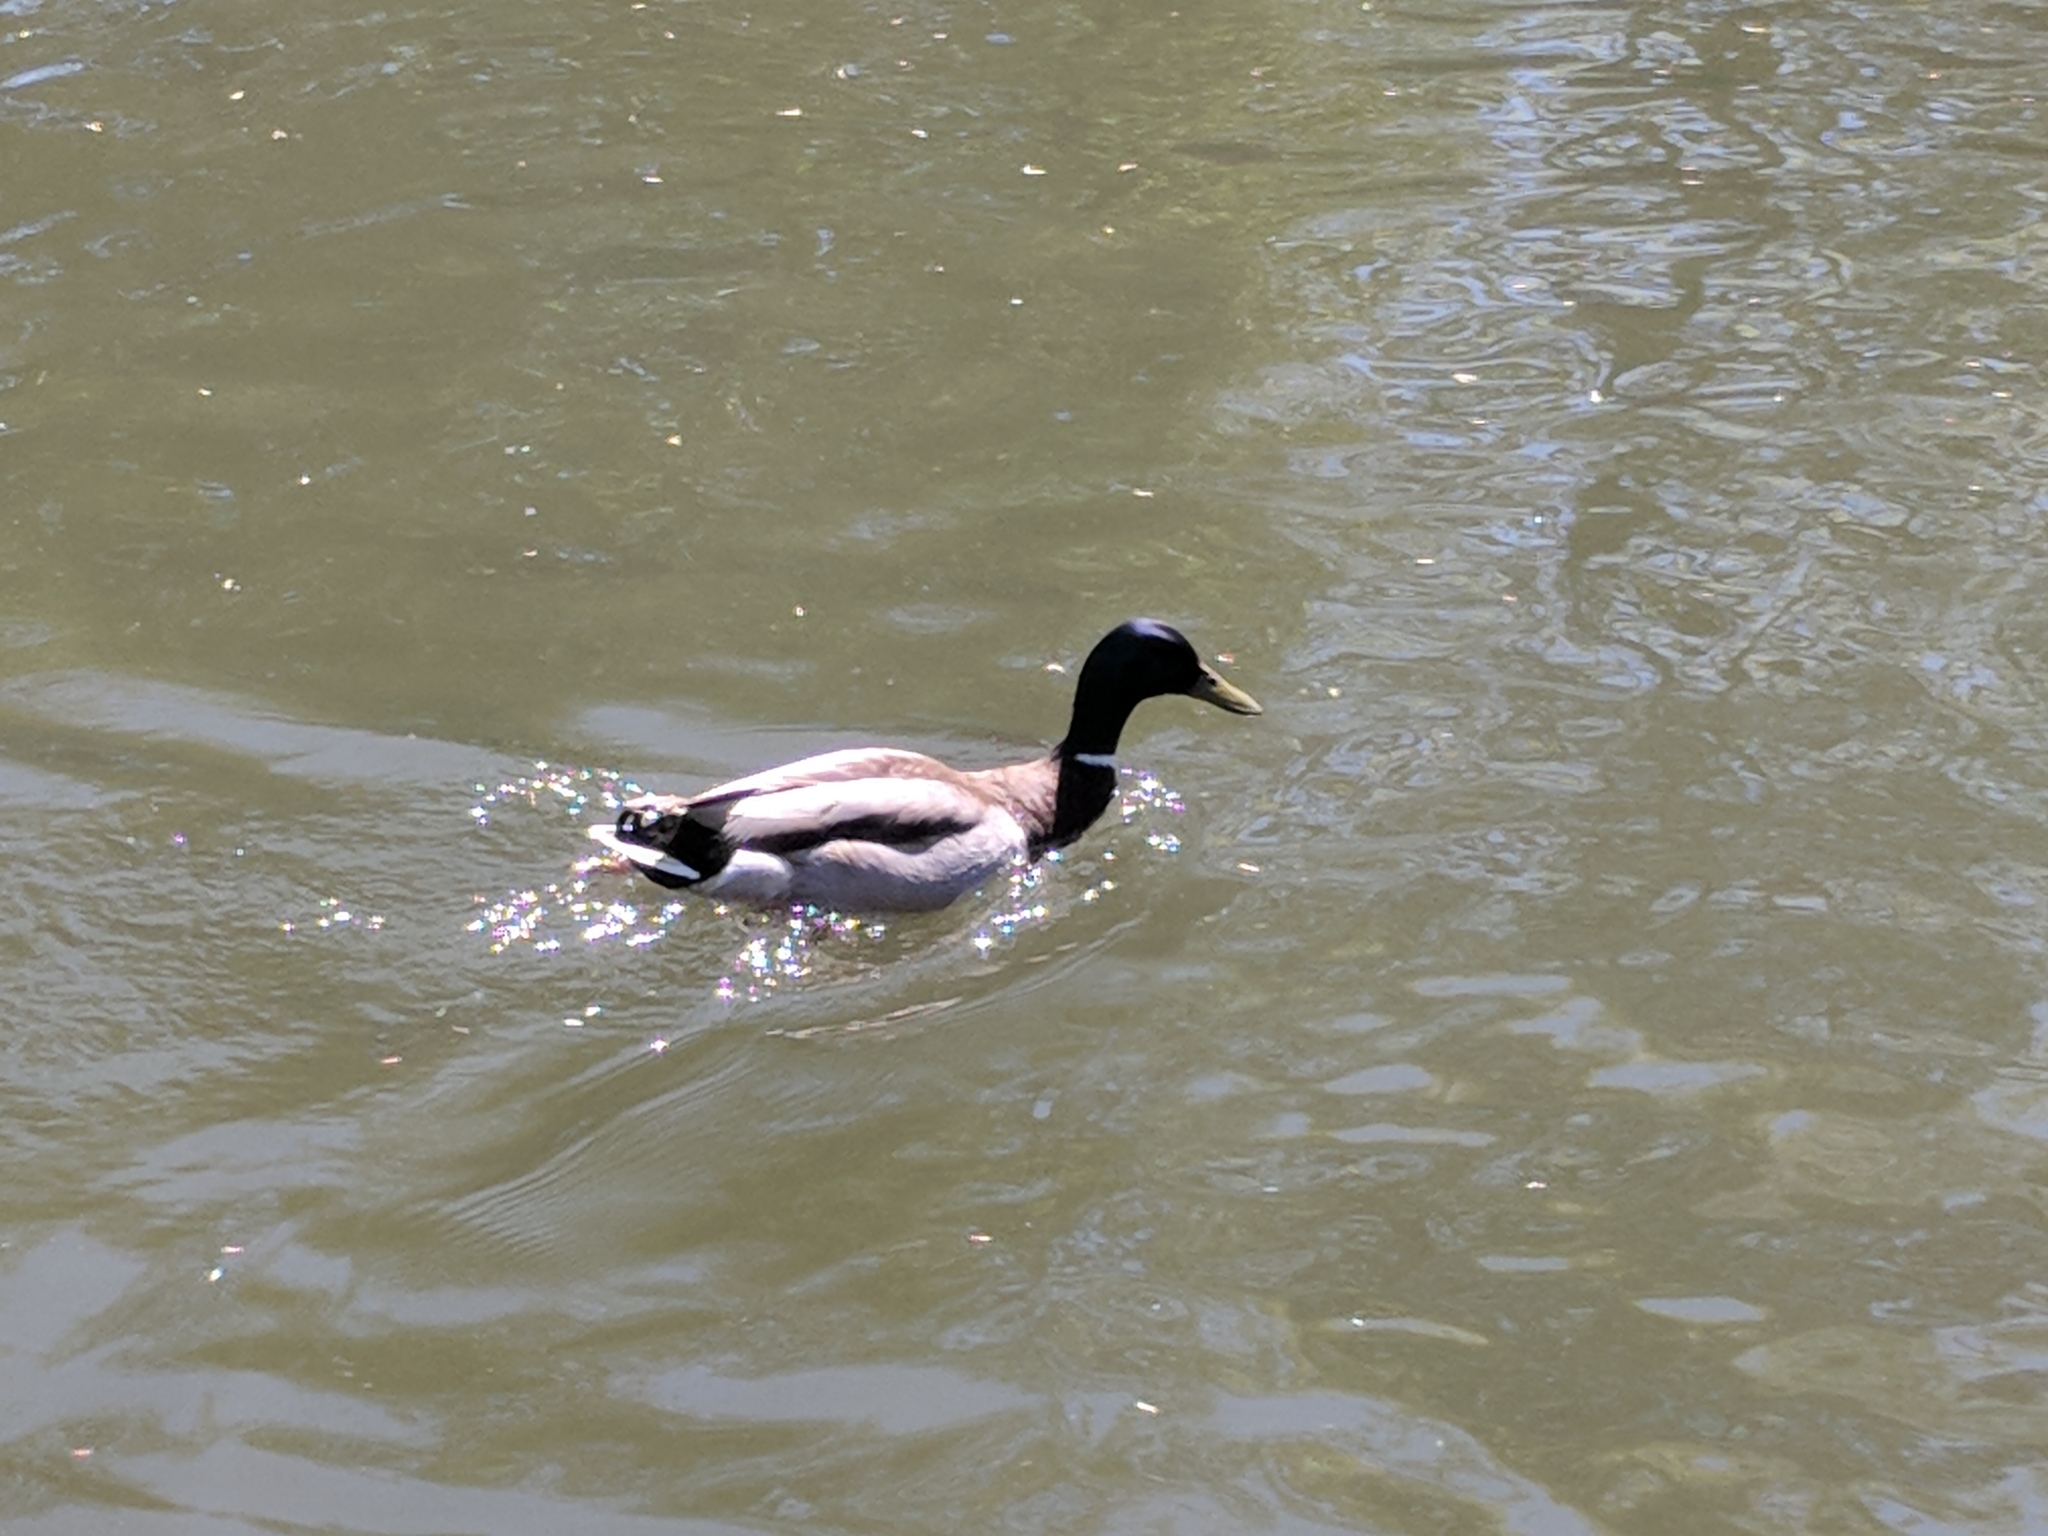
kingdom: Animalia
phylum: Chordata
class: Aves
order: Anseriformes
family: Anatidae
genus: Anas
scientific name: Anas platyrhynchos
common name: Mallard
